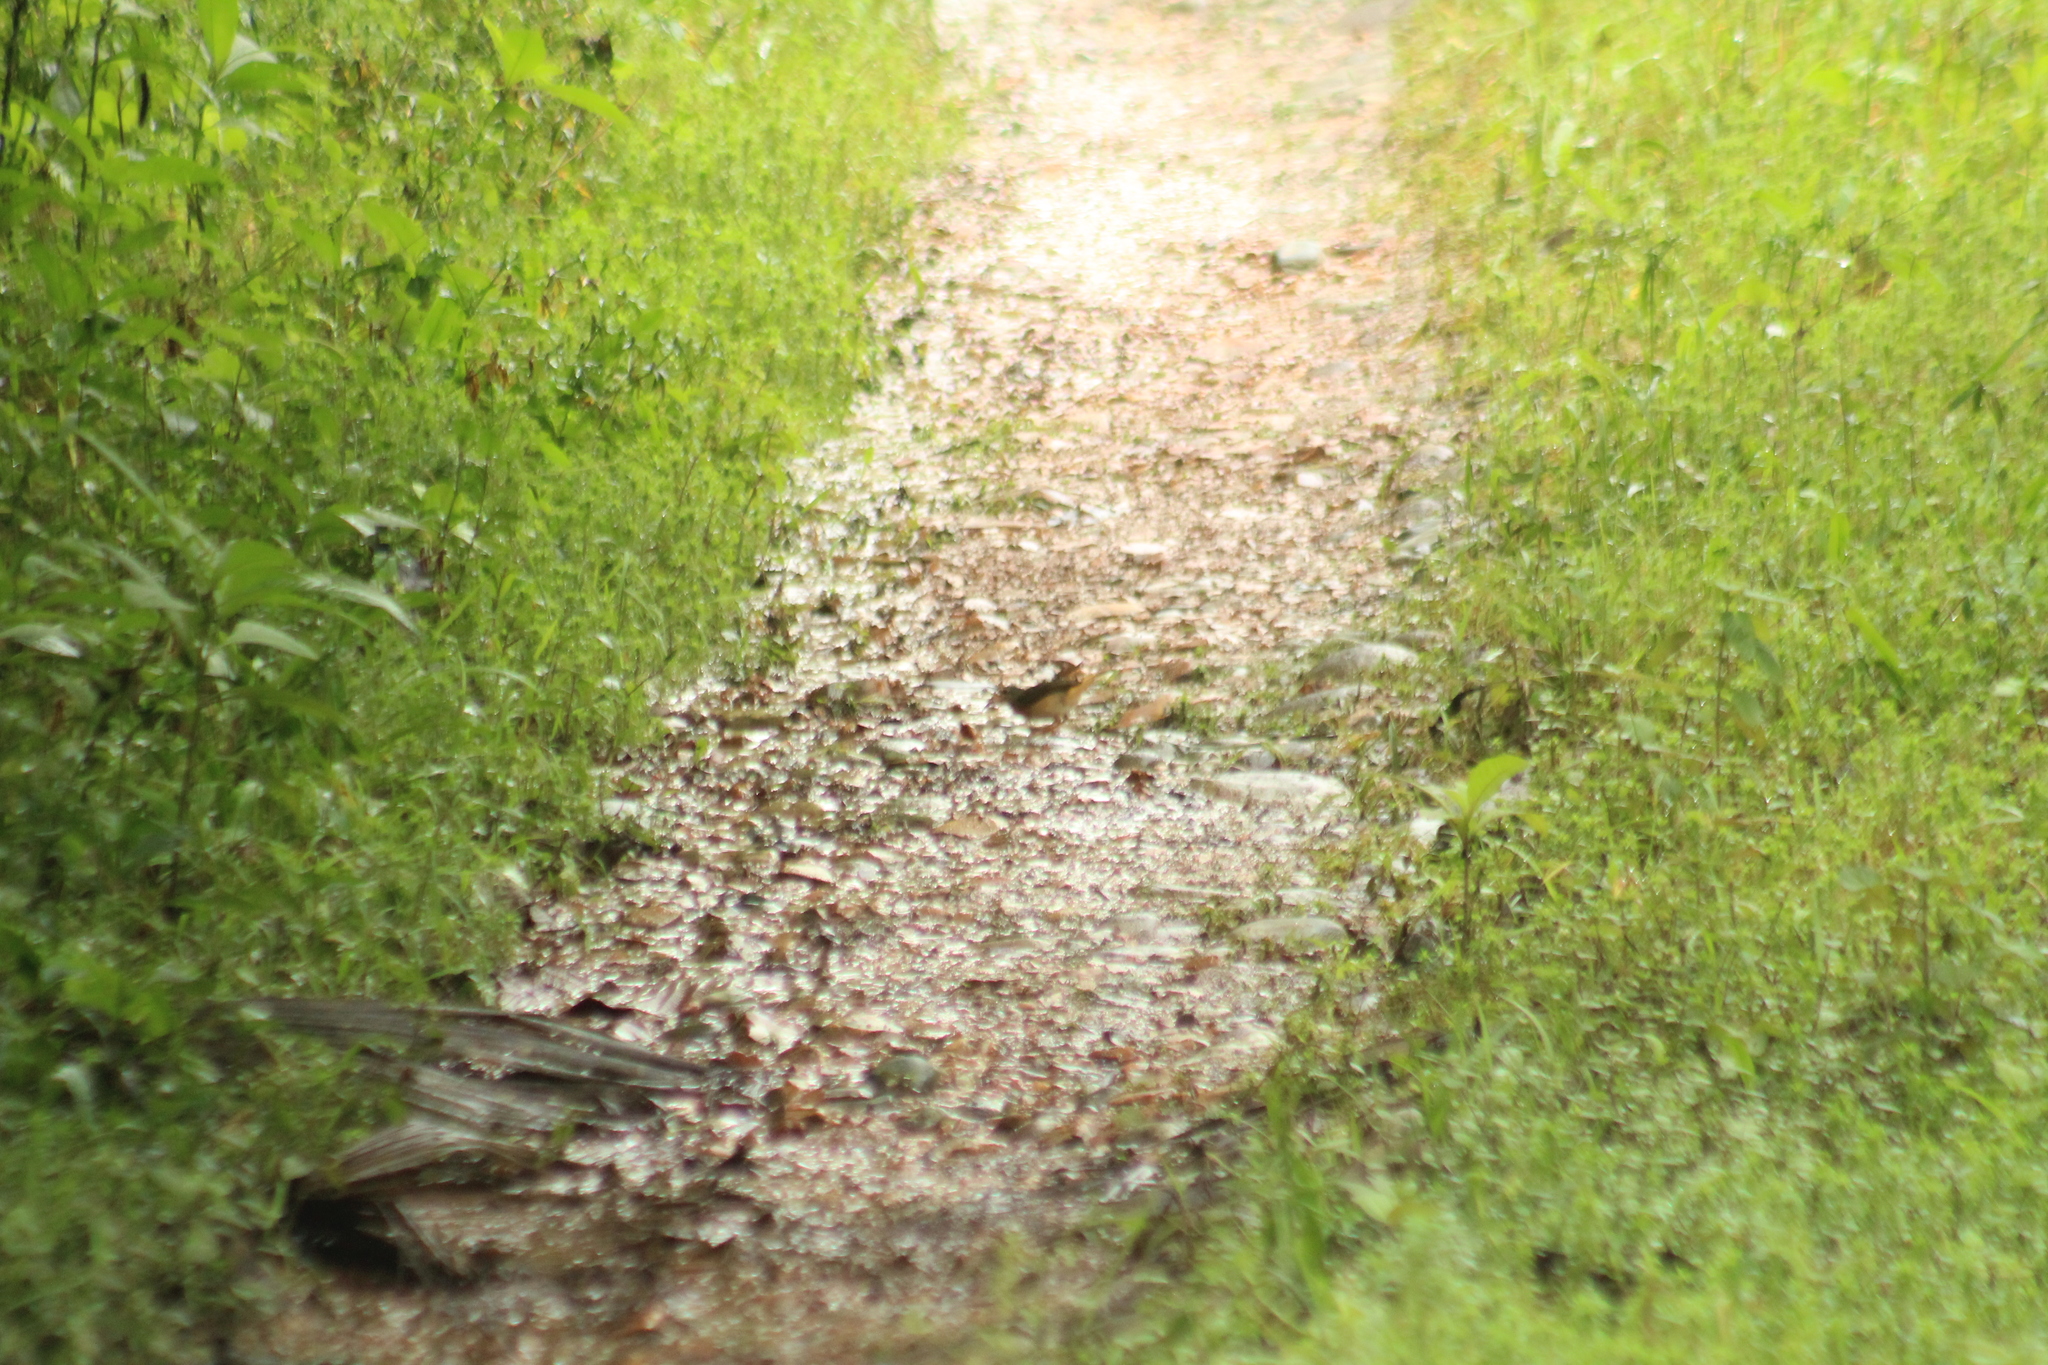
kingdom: Animalia
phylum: Chordata
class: Aves
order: Passeriformes
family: Parulidae
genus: Myiothlypis
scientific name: Myiothlypis fulvicauda
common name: Buff-rumped warbler
